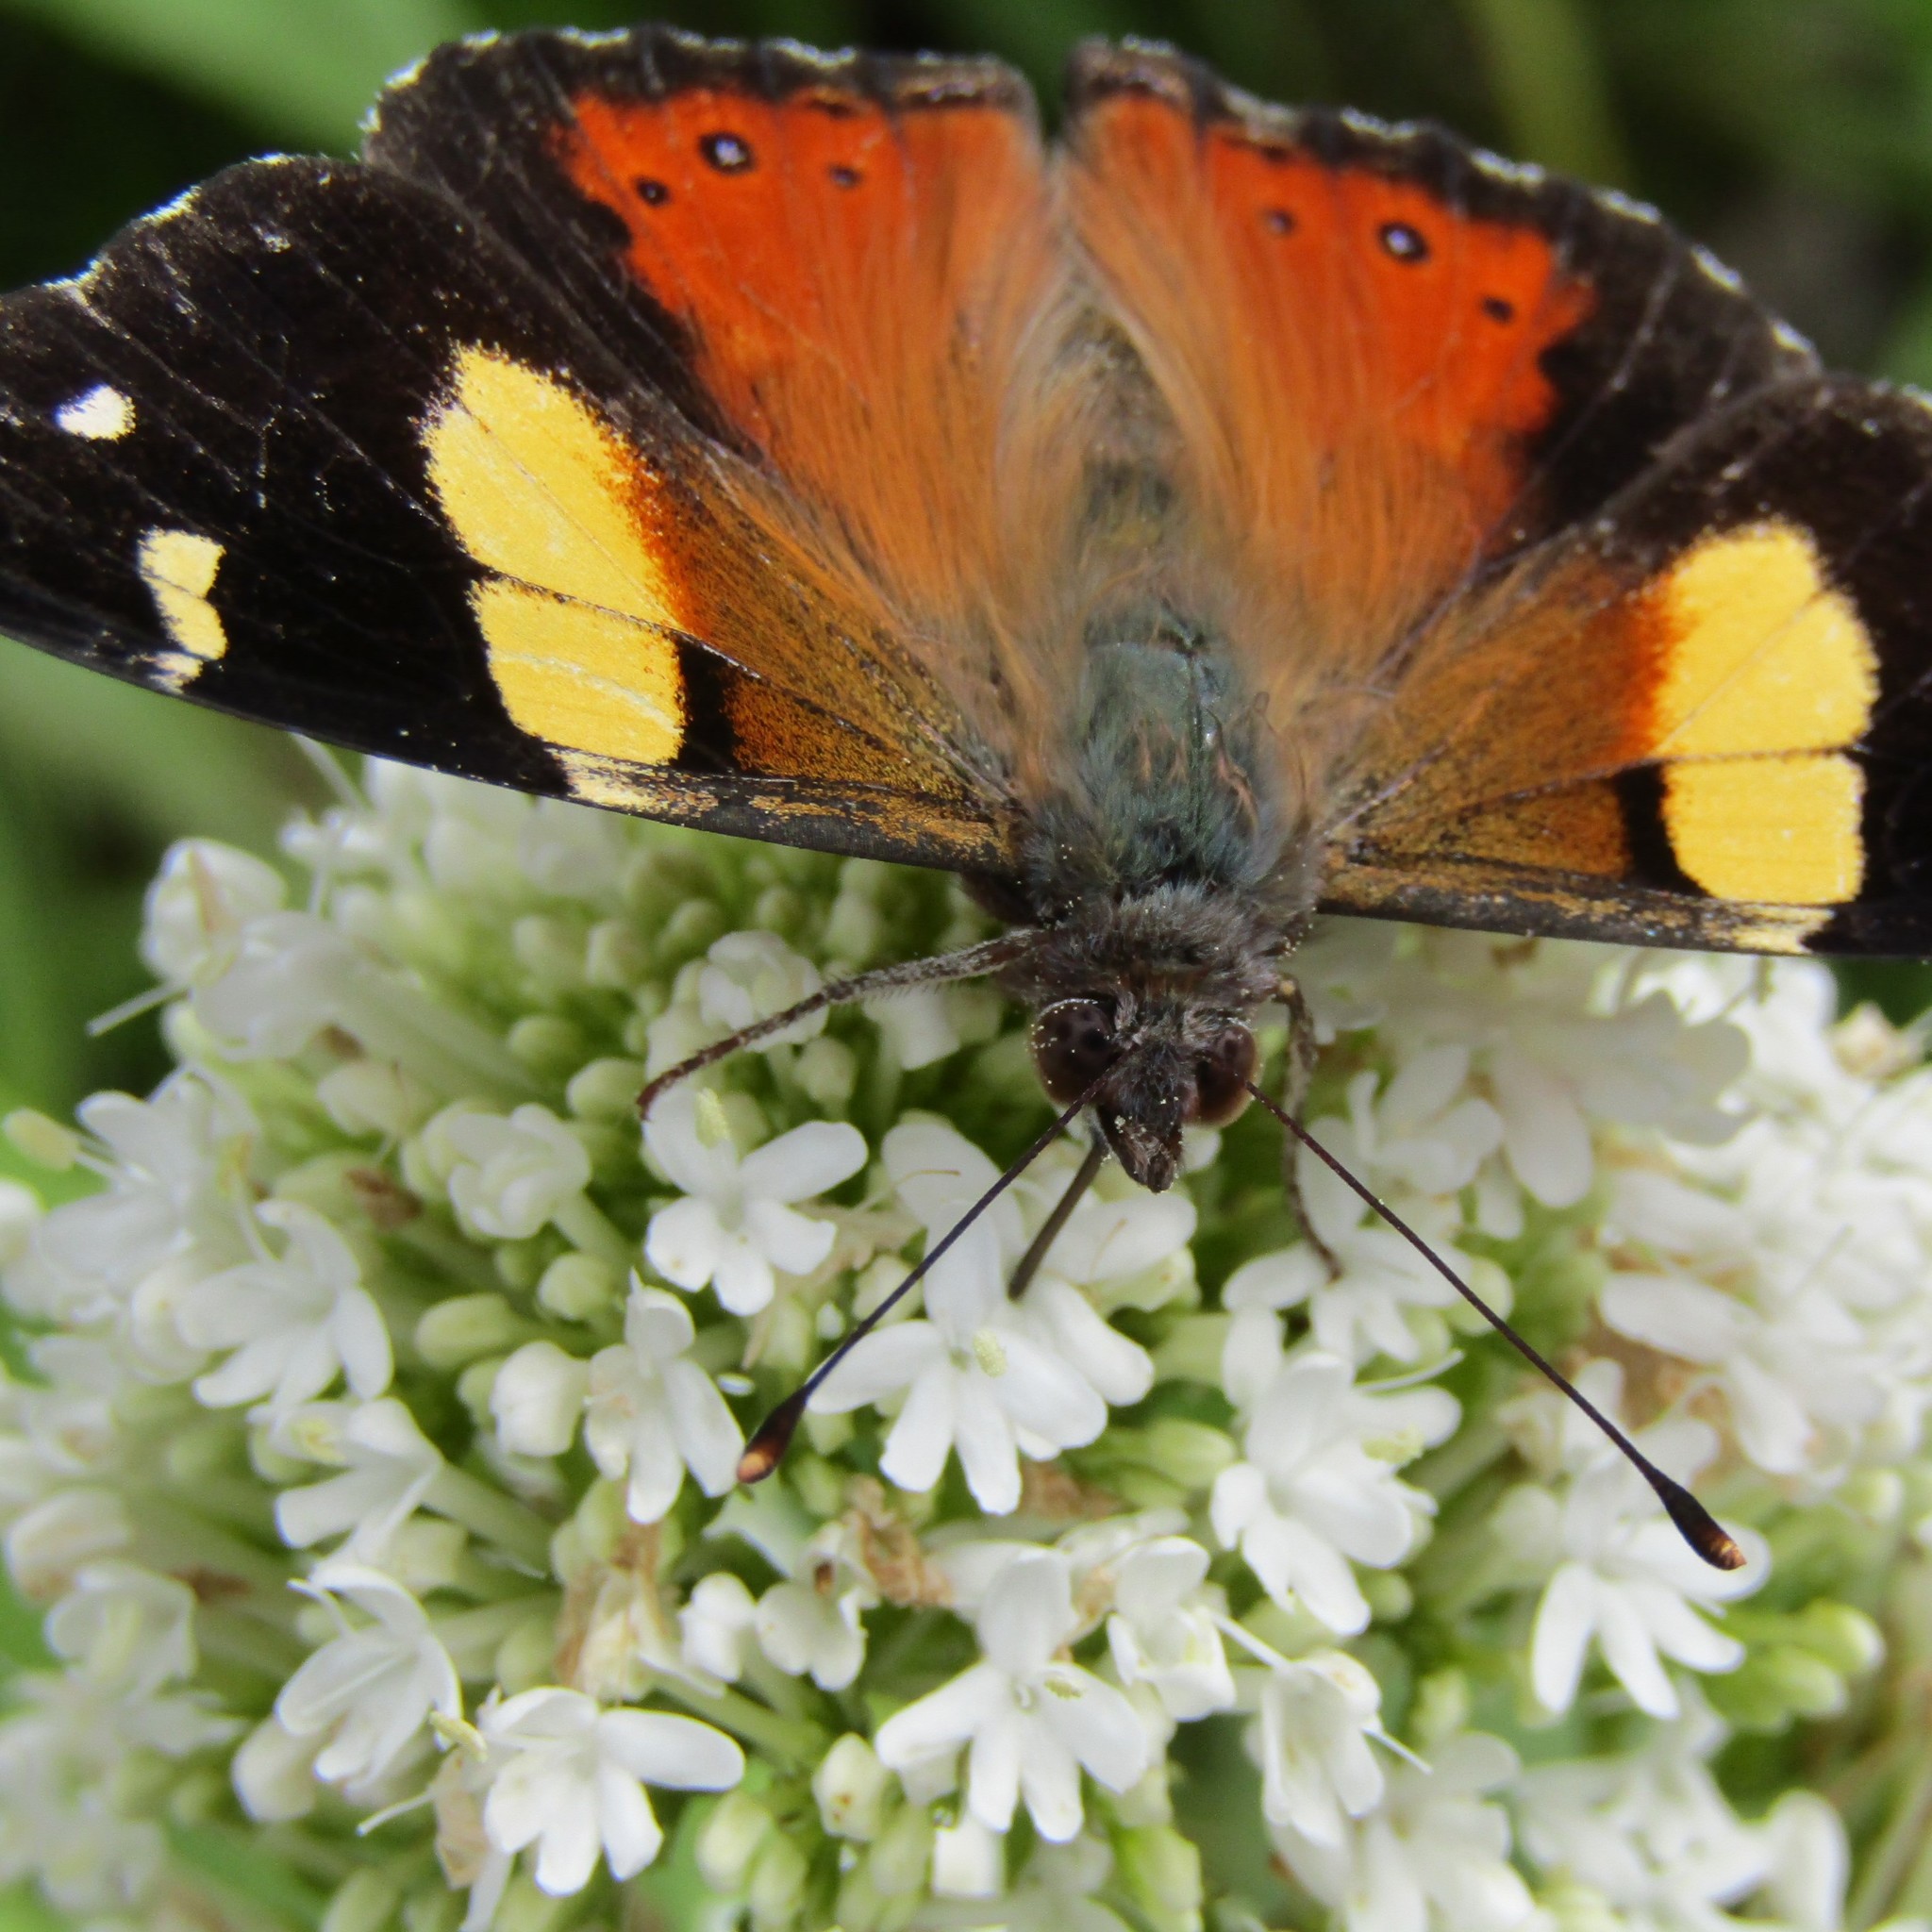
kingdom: Animalia
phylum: Arthropoda
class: Insecta
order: Lepidoptera
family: Nymphalidae
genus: Vanessa
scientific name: Vanessa itea
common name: Yellow admiral
